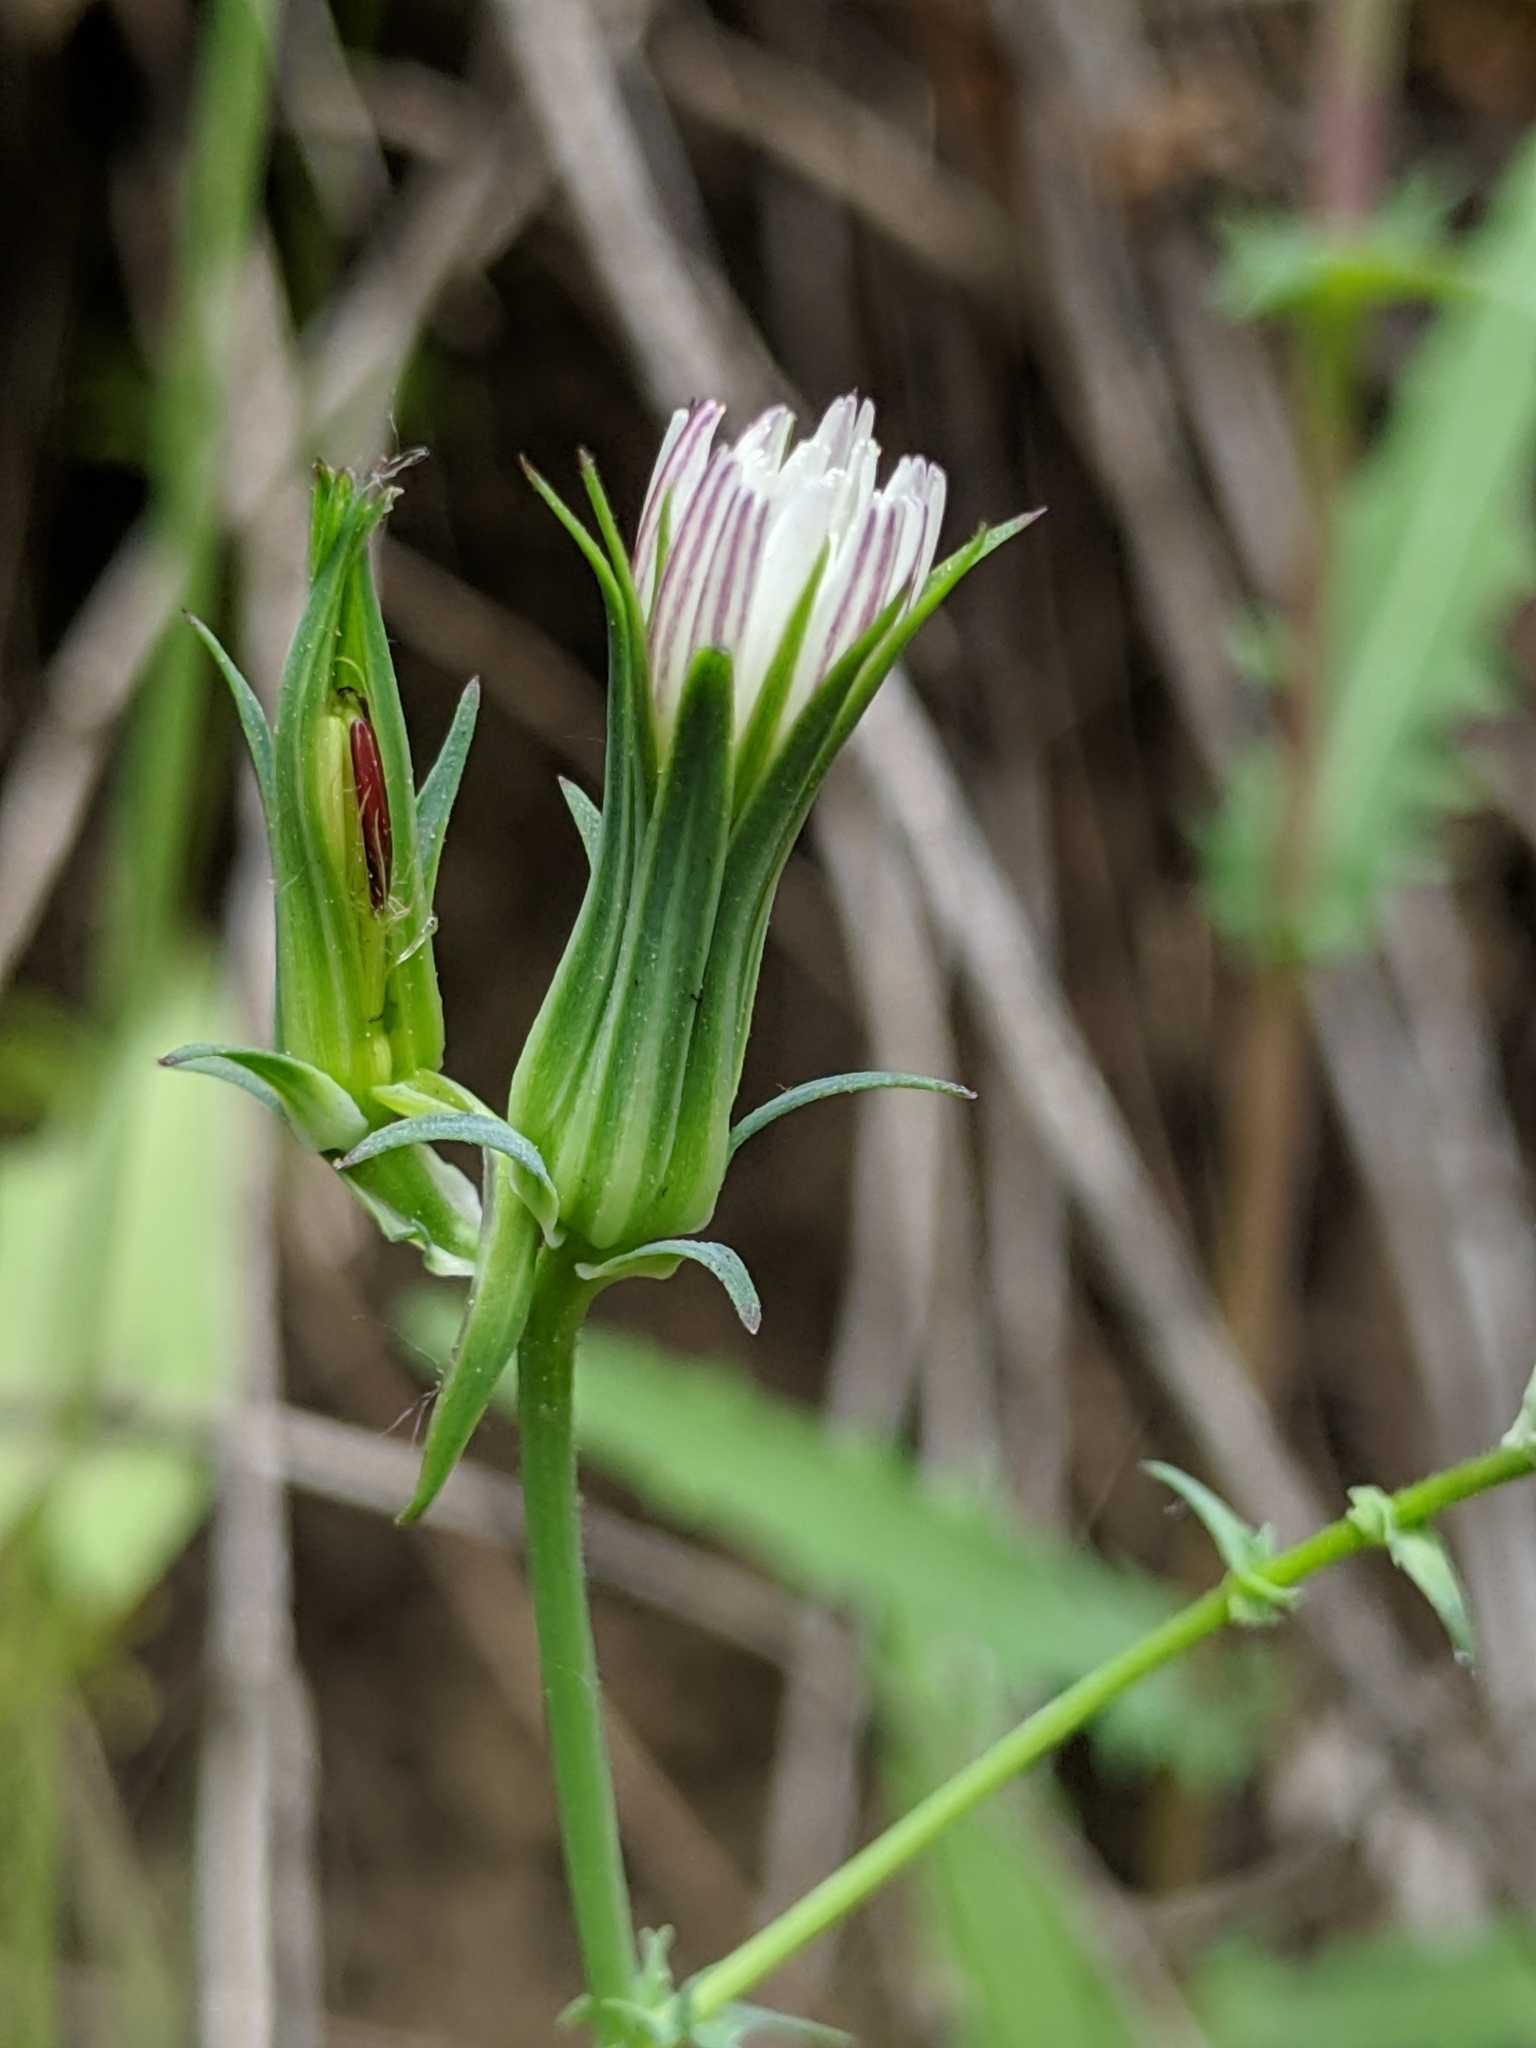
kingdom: Plantae
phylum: Tracheophyta
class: Magnoliopsida
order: Asterales
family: Asteraceae
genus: Rafinesquia
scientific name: Rafinesquia californica
